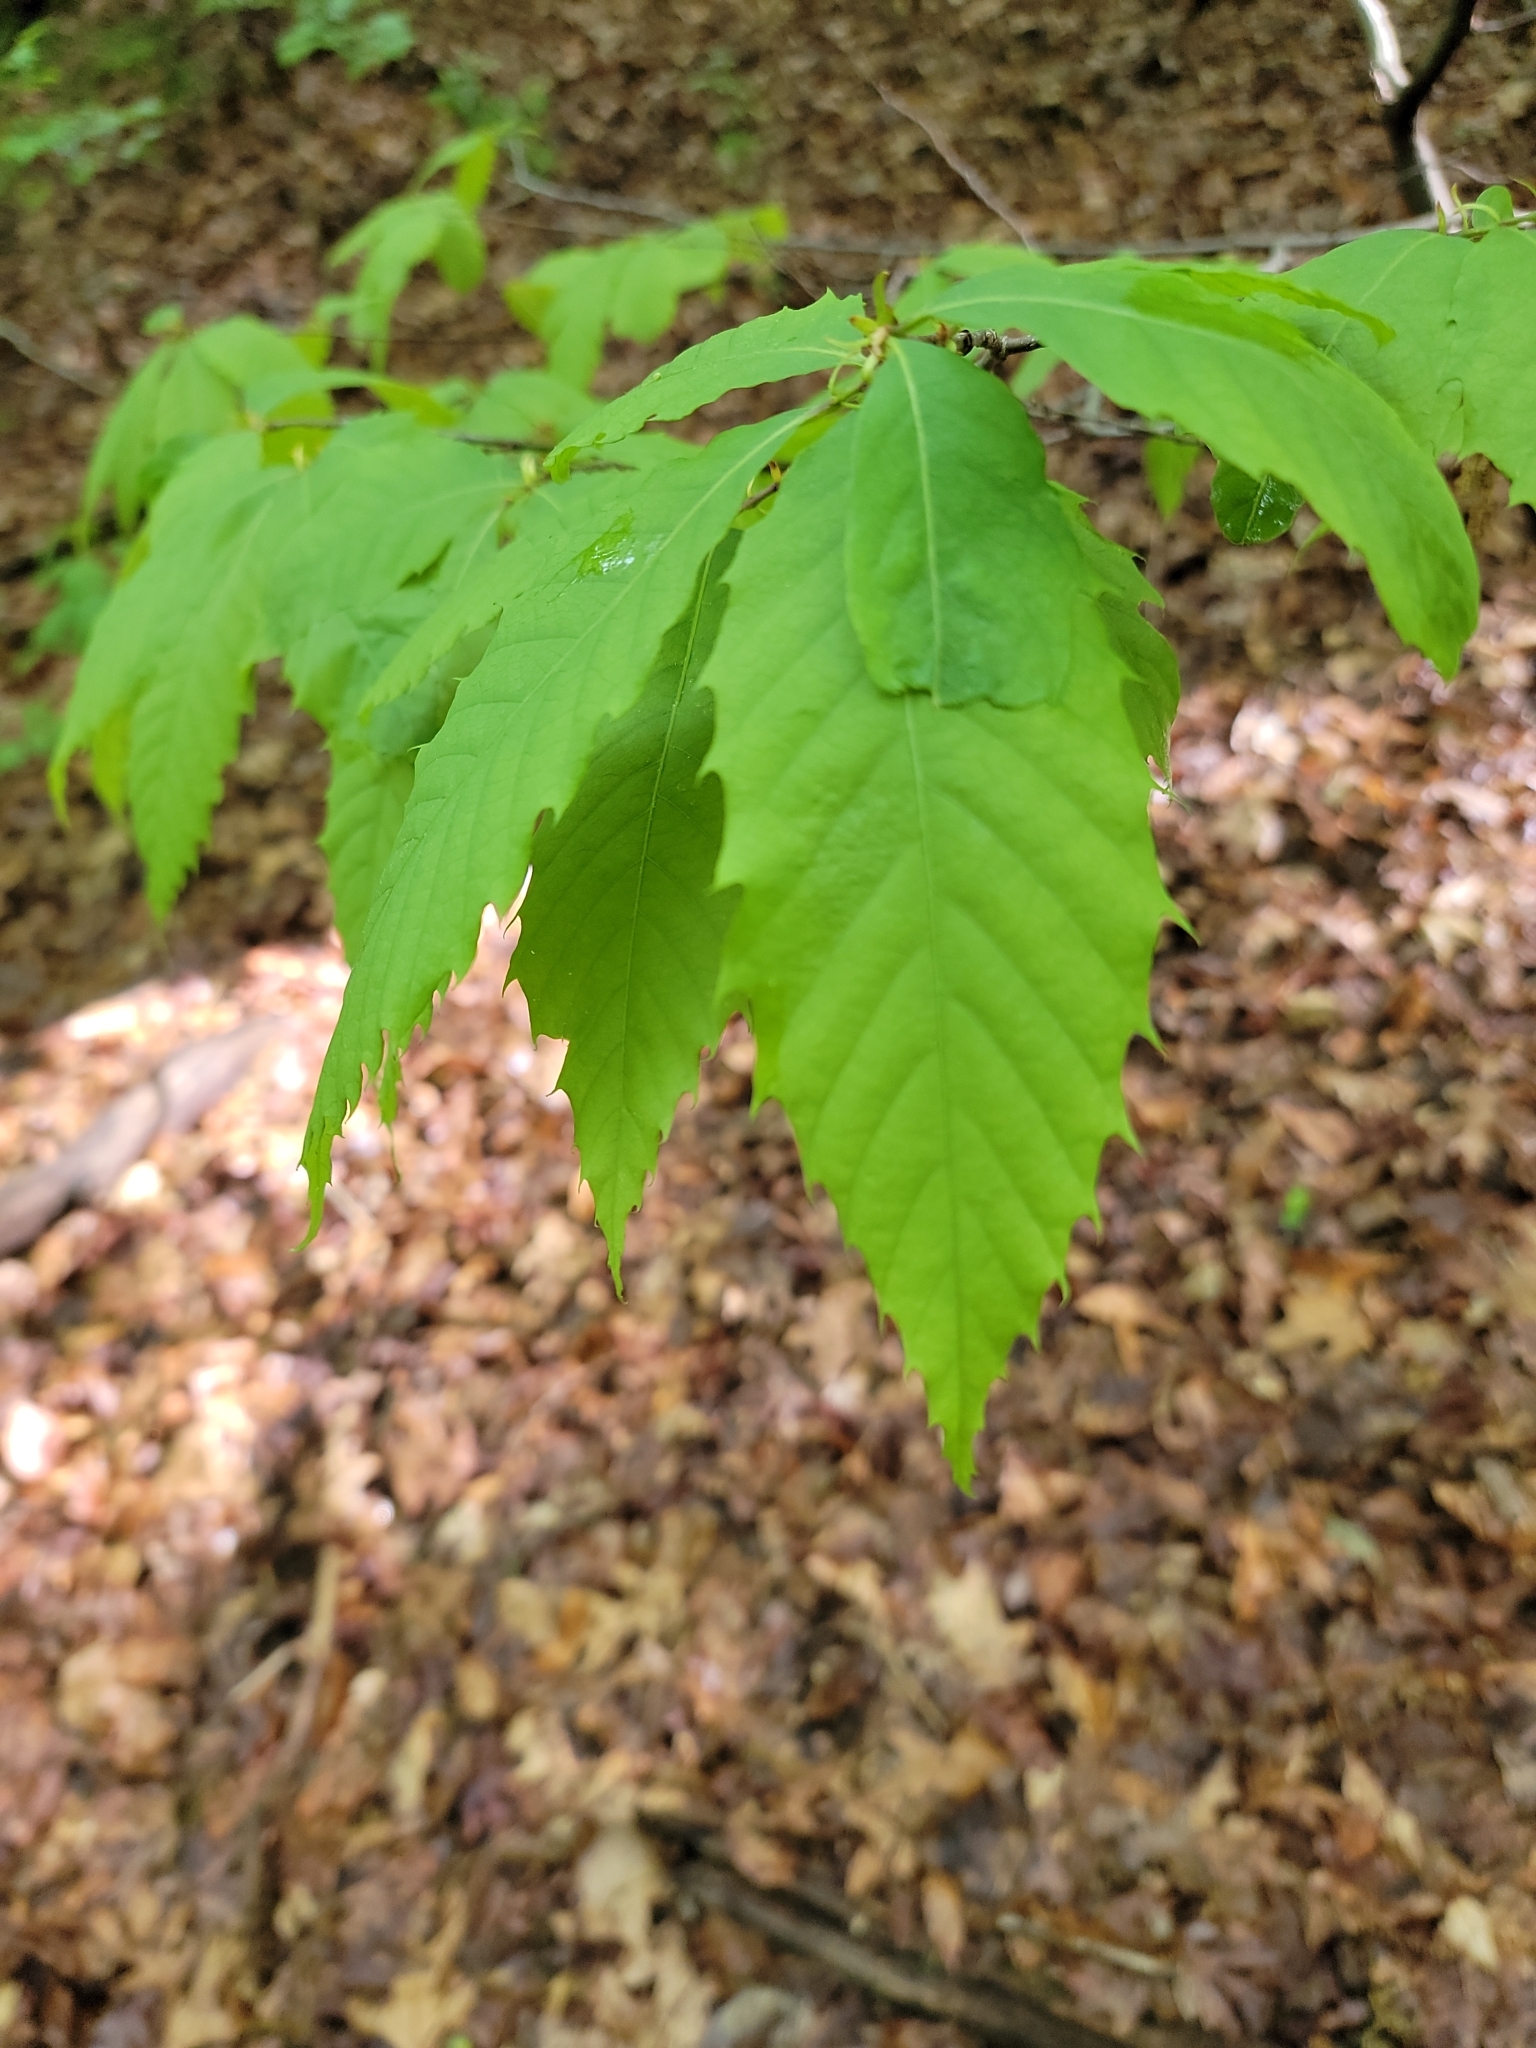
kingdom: Plantae
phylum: Tracheophyta
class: Magnoliopsida
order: Fagales
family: Fagaceae
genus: Castanea
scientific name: Castanea dentata
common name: American chestnut
